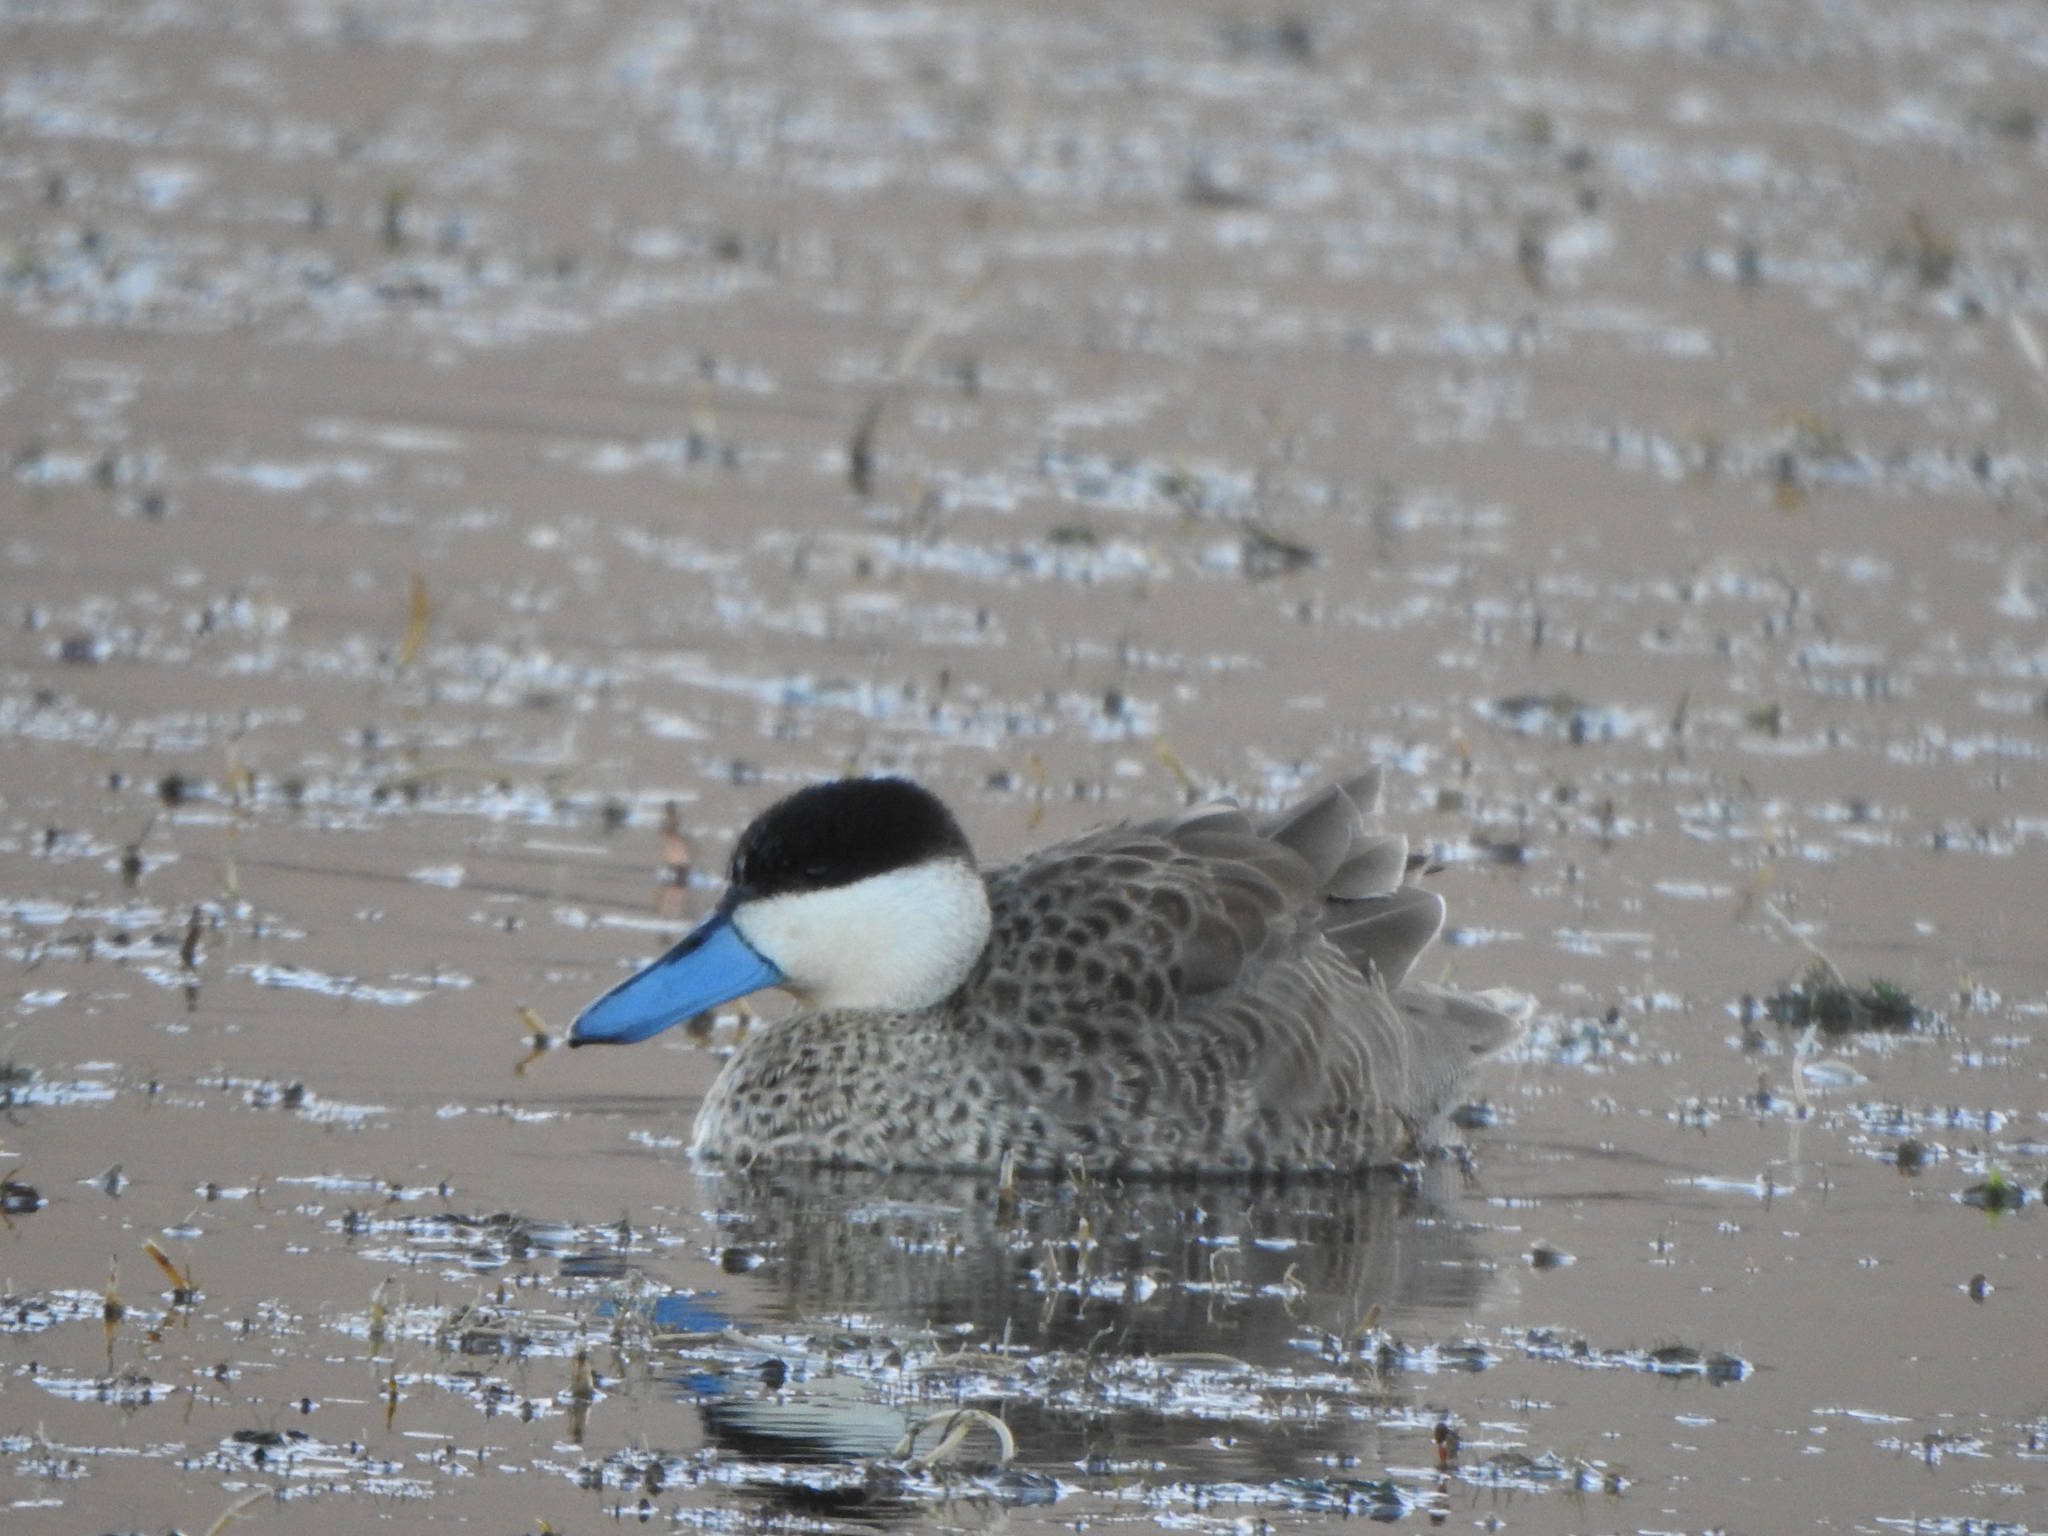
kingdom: Animalia
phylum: Chordata
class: Aves
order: Anseriformes
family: Anatidae
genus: Spatula
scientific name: Spatula puna
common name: Puna teal
